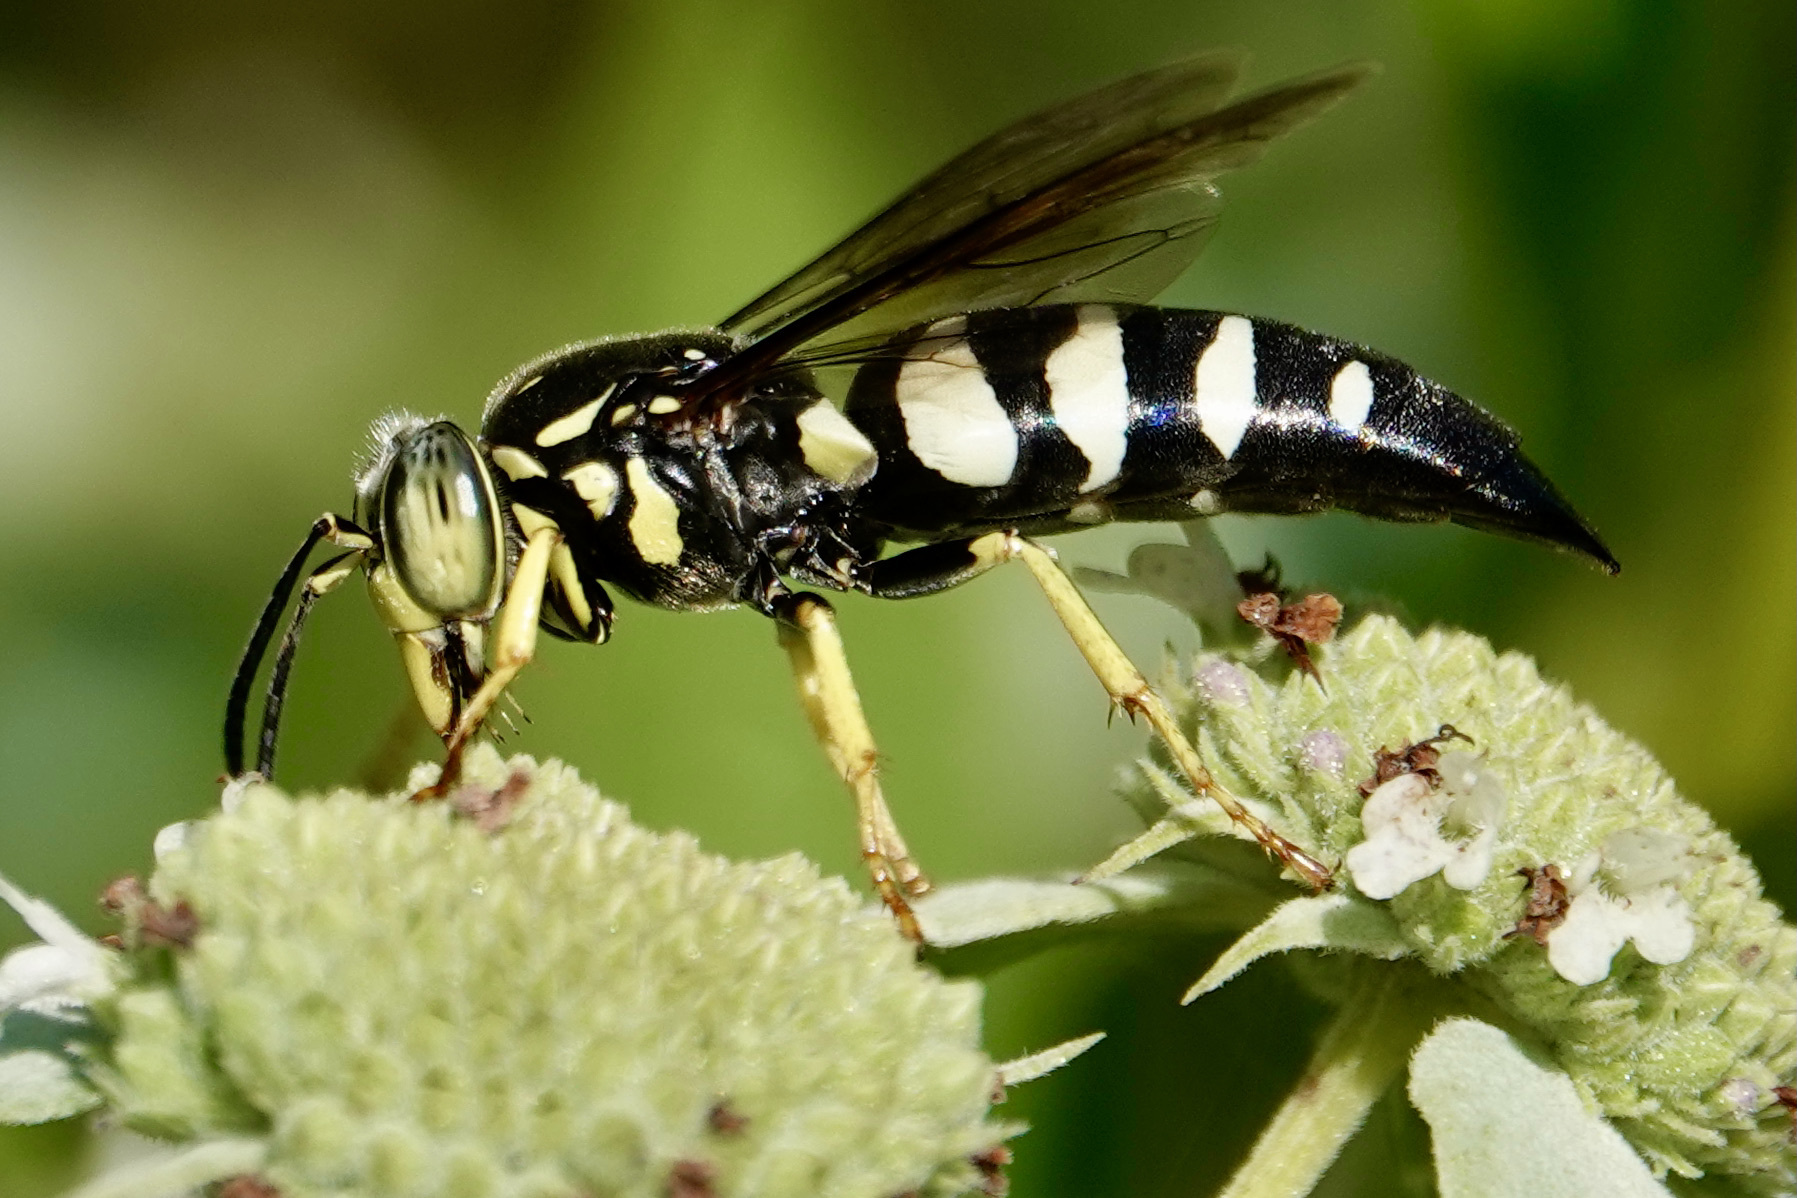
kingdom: Animalia
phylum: Arthropoda
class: Insecta
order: Hymenoptera
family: Crabronidae
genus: Bicyrtes
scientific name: Bicyrtes quadrifasciatus
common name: Four-banded stink bug hunter wasp
